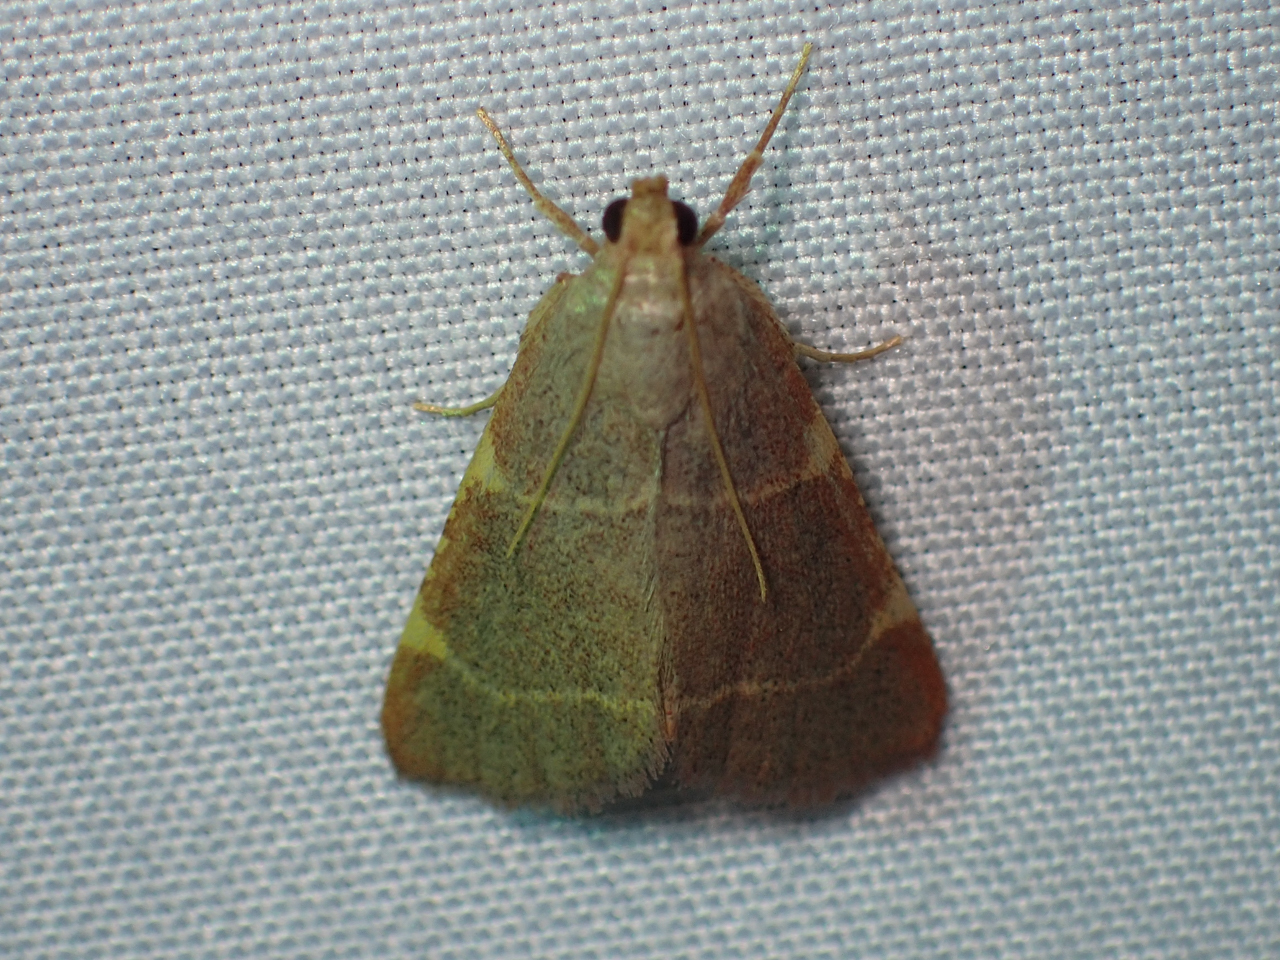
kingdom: Animalia
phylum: Arthropoda
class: Insecta
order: Lepidoptera
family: Pyralidae
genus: Hypsopygia
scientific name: Hypsopygia binodulalis
